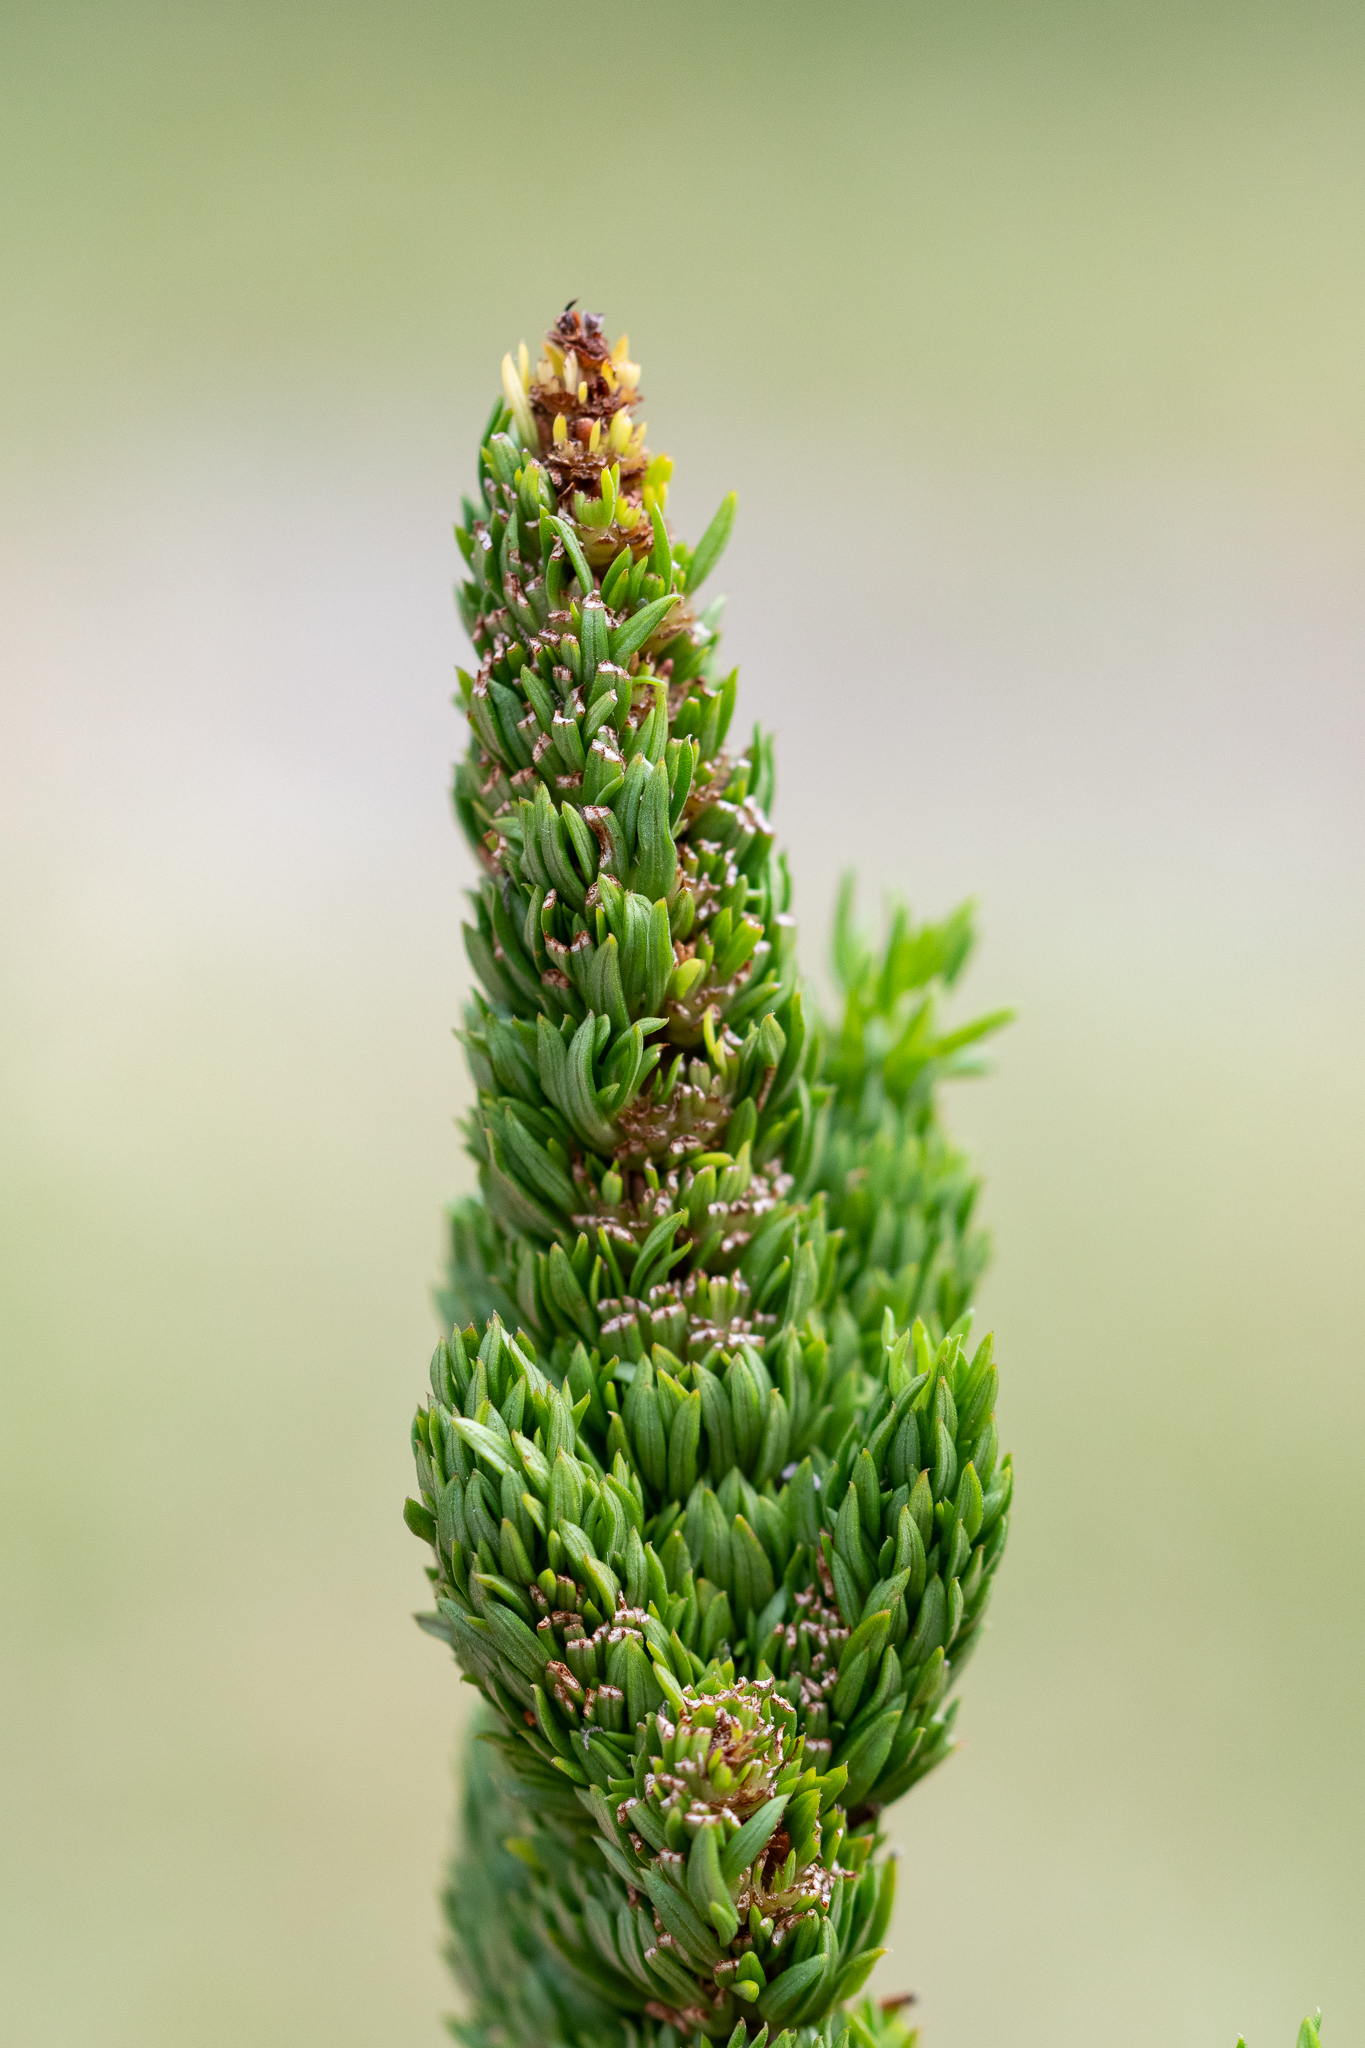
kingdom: Plantae
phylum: Tracheophyta
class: Magnoliopsida
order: Gentianales
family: Rubiaceae
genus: Anthospermum
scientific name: Anthospermum aethiopicum
